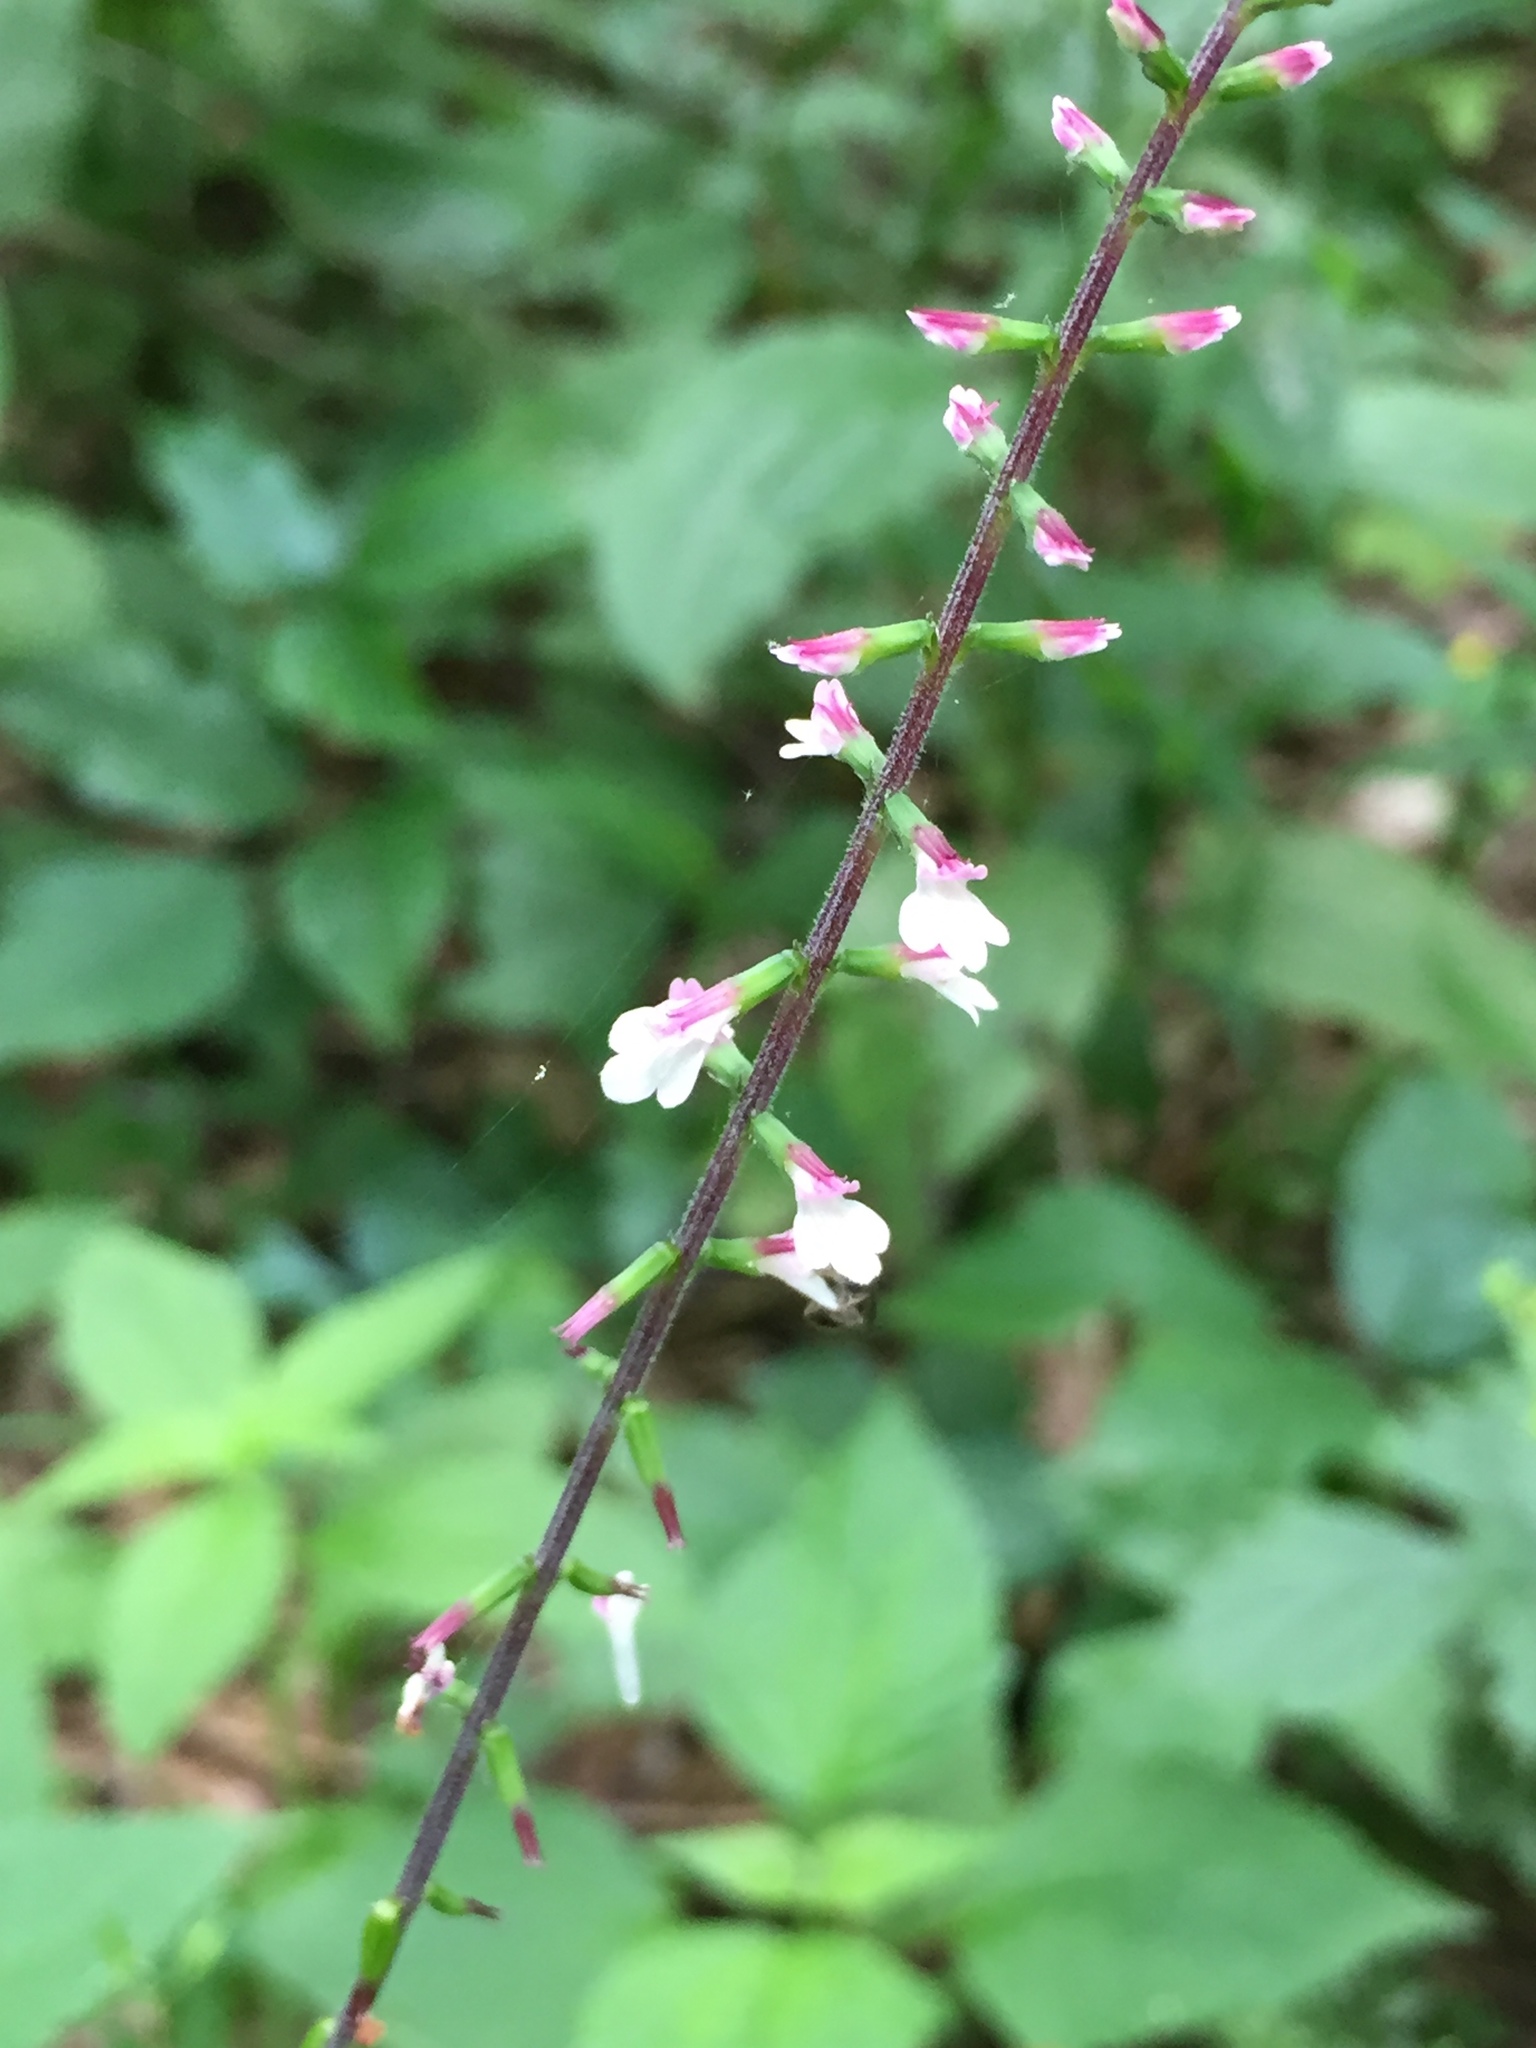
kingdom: Plantae
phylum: Tracheophyta
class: Magnoliopsida
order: Lamiales
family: Phrymaceae
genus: Phryma
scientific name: Phryma leptostachya
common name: American lopseed
